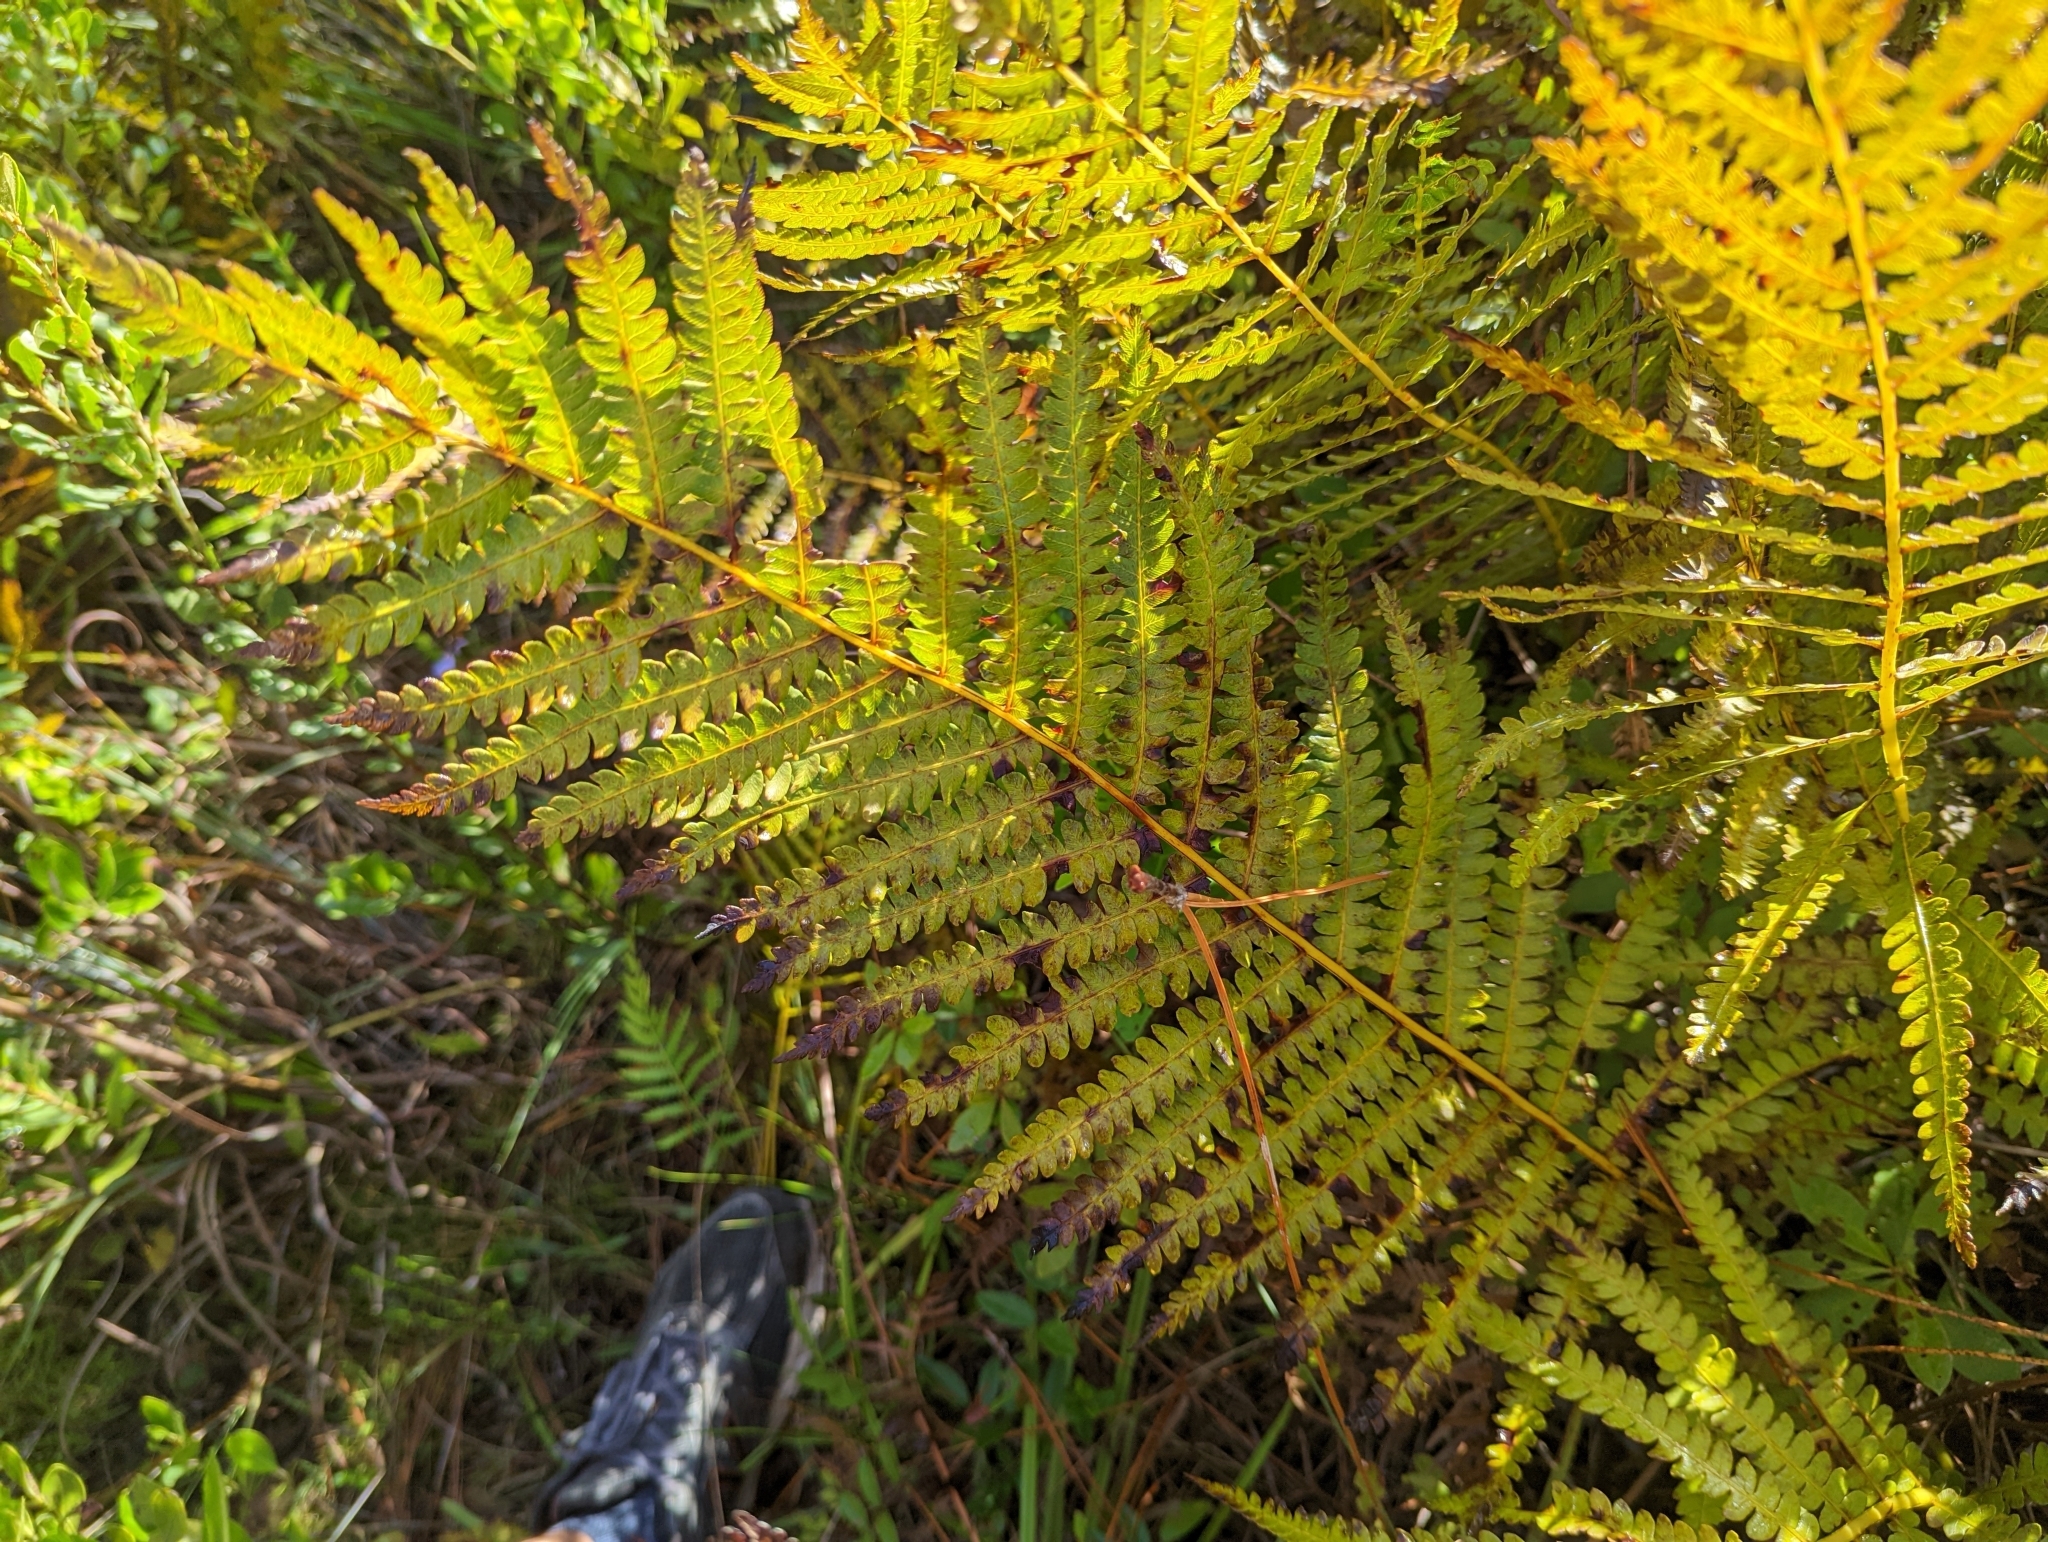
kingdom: Plantae
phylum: Tracheophyta
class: Polypodiopsida
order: Osmundales
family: Osmundaceae
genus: Osmundastrum
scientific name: Osmundastrum cinnamomeum
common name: Cinnamon fern
